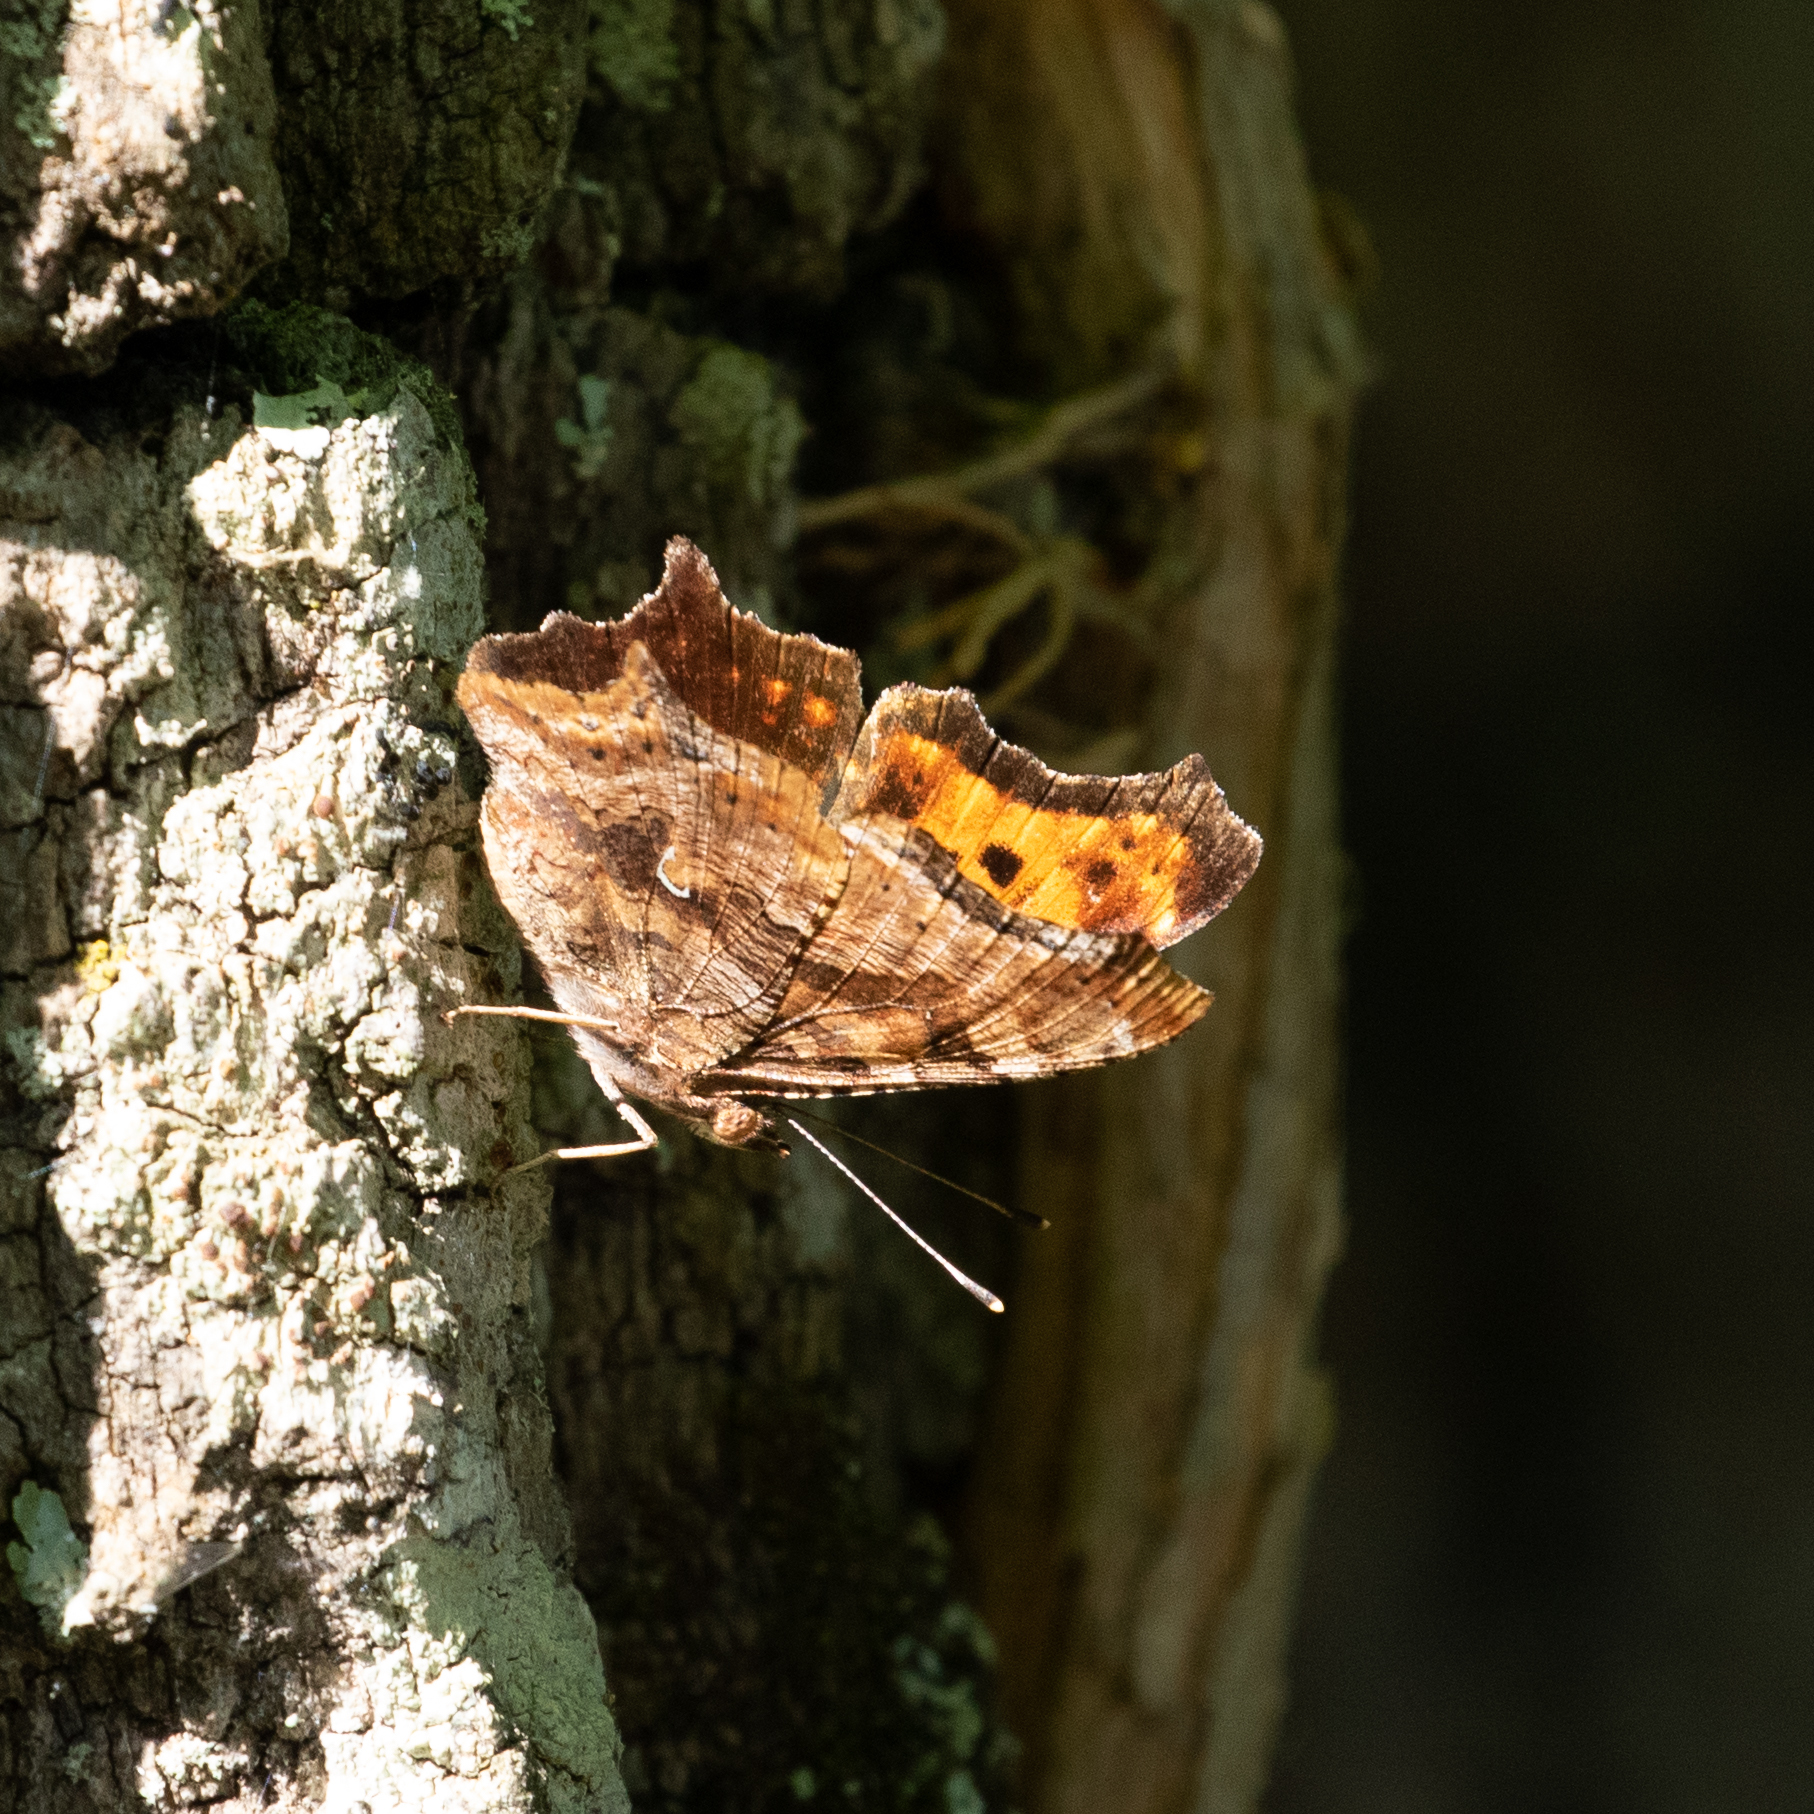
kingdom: Animalia
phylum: Arthropoda
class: Insecta
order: Lepidoptera
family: Nymphalidae
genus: Polygonia
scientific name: Polygonia comma
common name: Eastern comma
